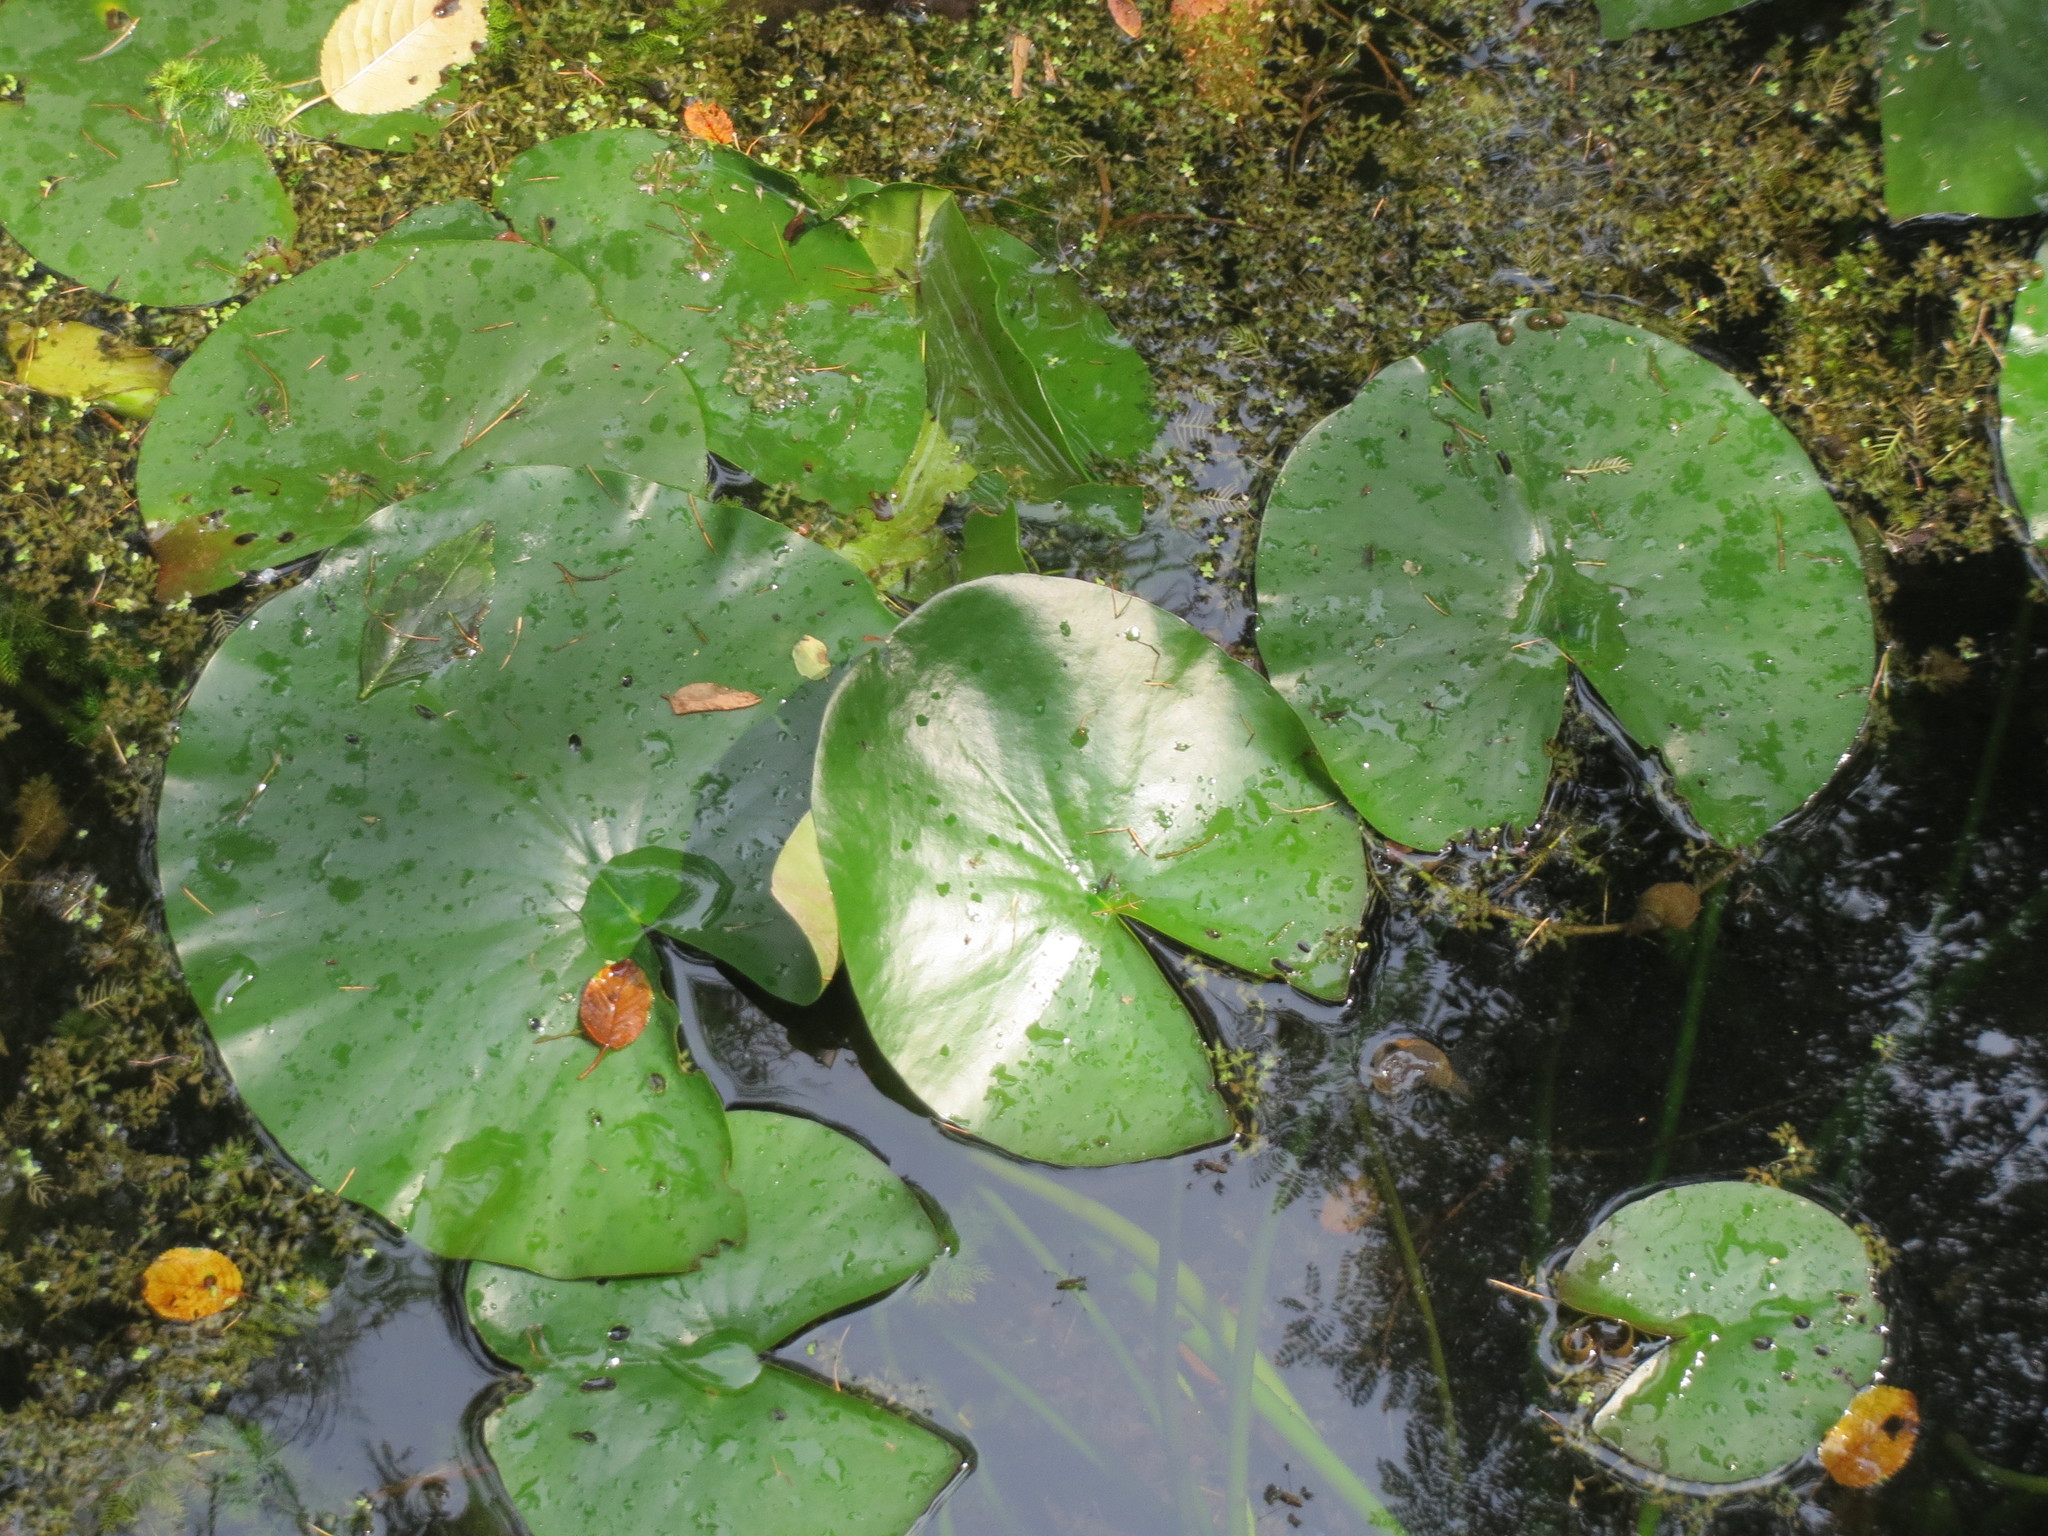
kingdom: Plantae
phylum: Tracheophyta
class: Magnoliopsida
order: Nymphaeales
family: Nymphaeaceae
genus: Nymphaea
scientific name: Nymphaea alba
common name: White water-lily
